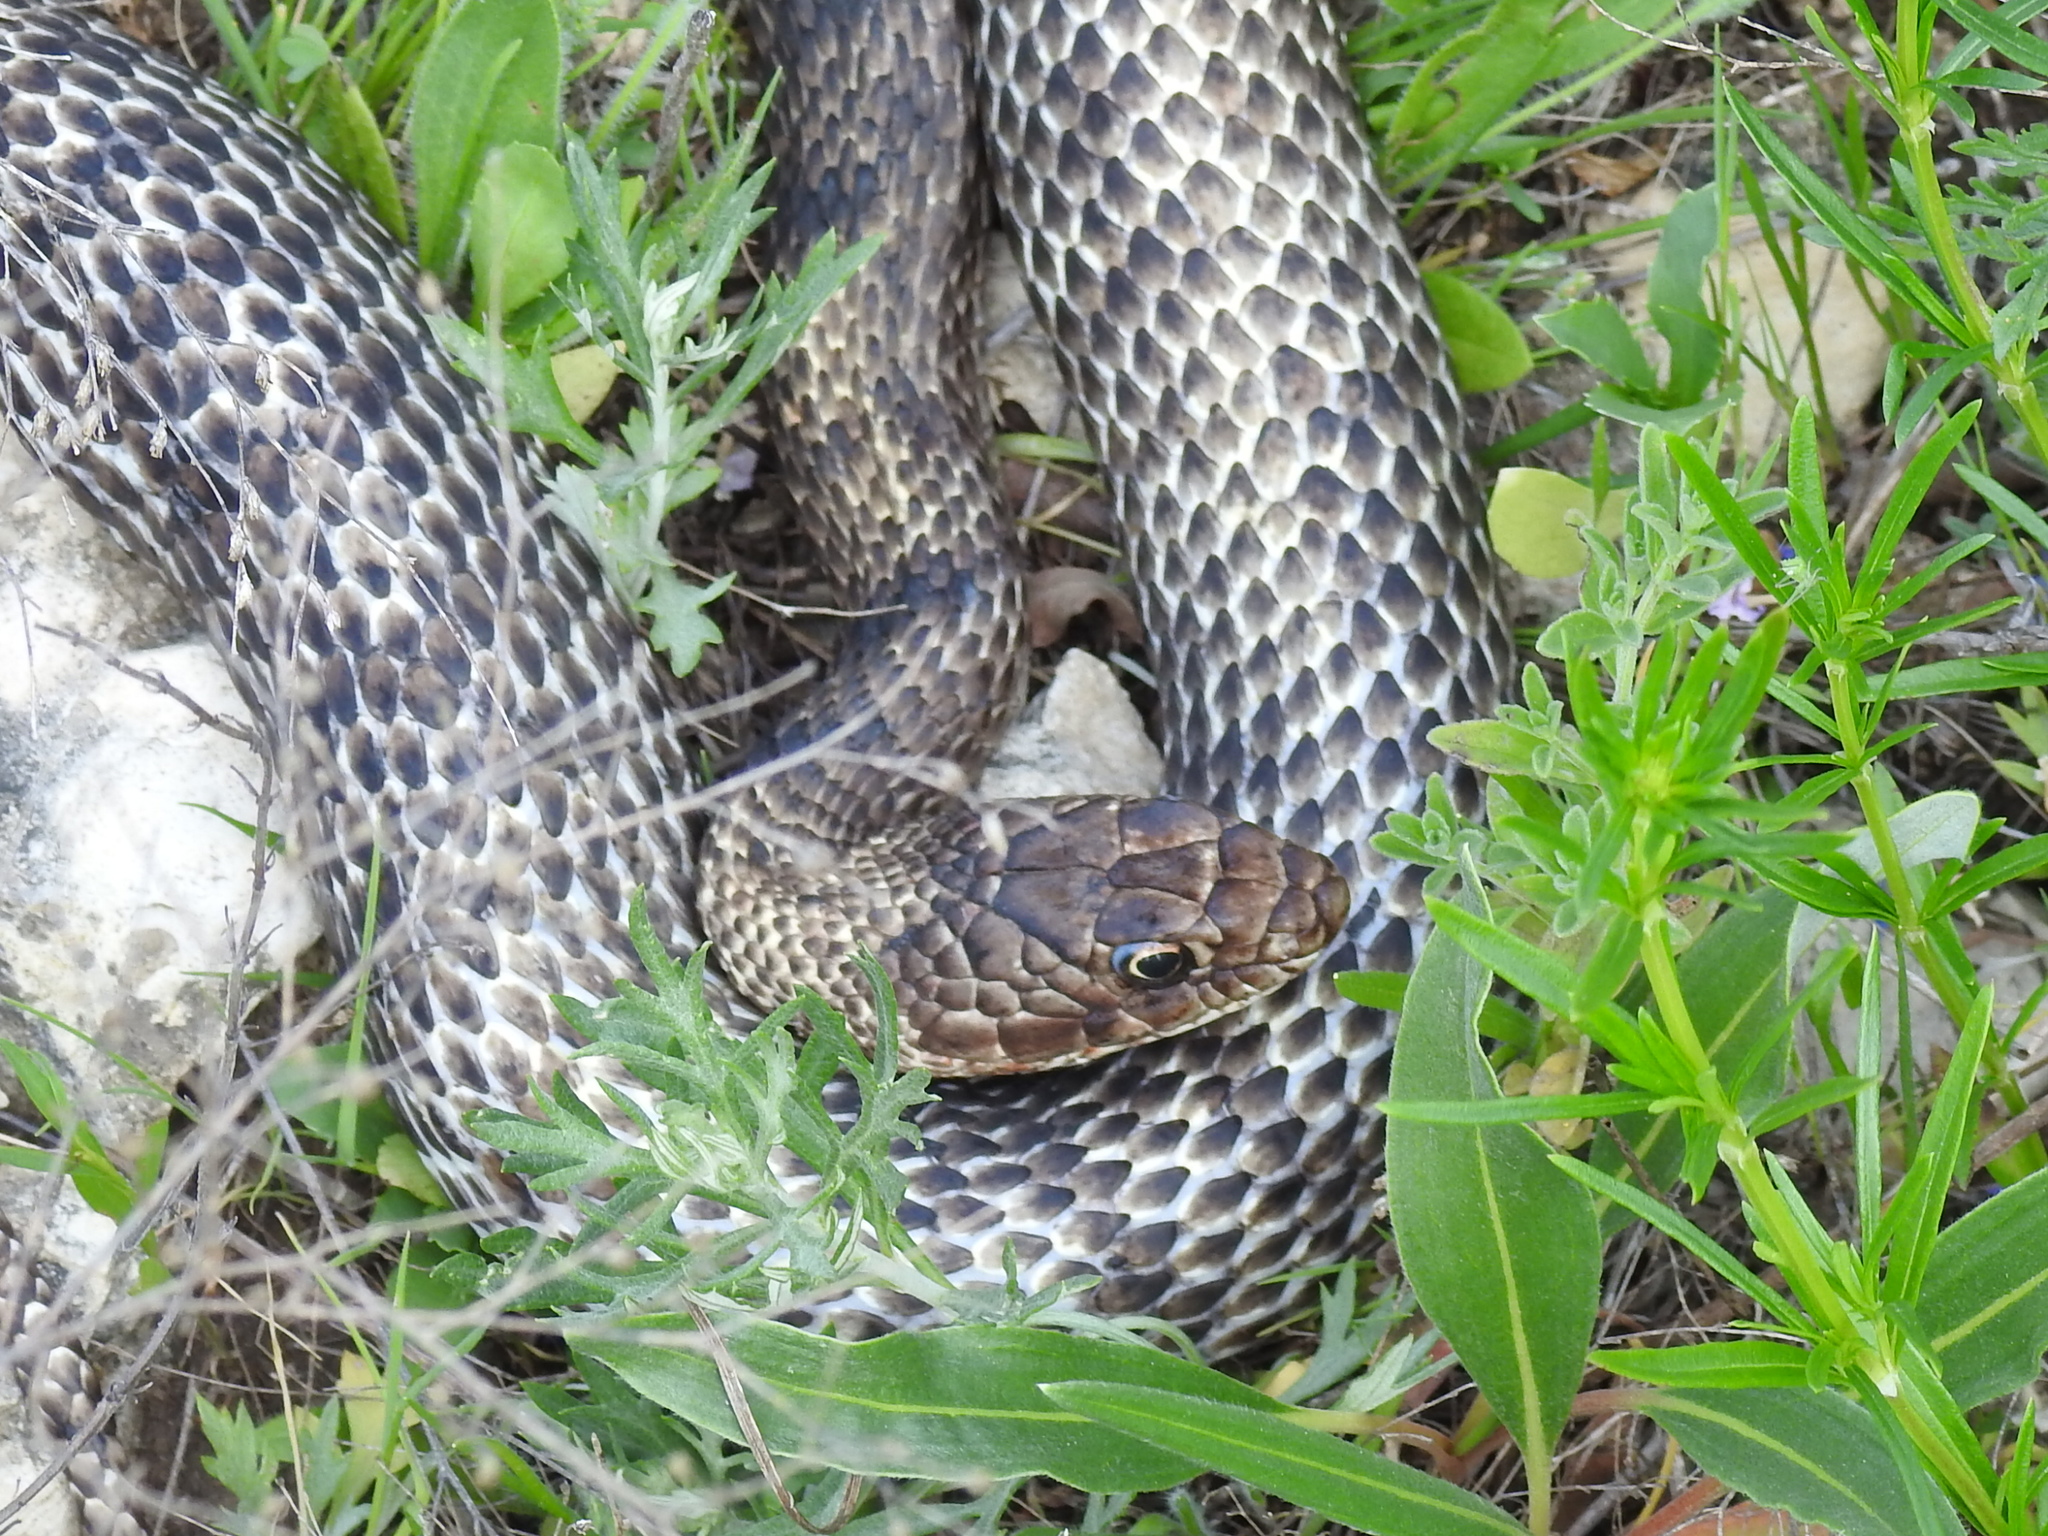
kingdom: Animalia
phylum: Chordata
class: Squamata
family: Colubridae
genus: Masticophis
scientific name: Masticophis flagellum
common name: Coachwhip
